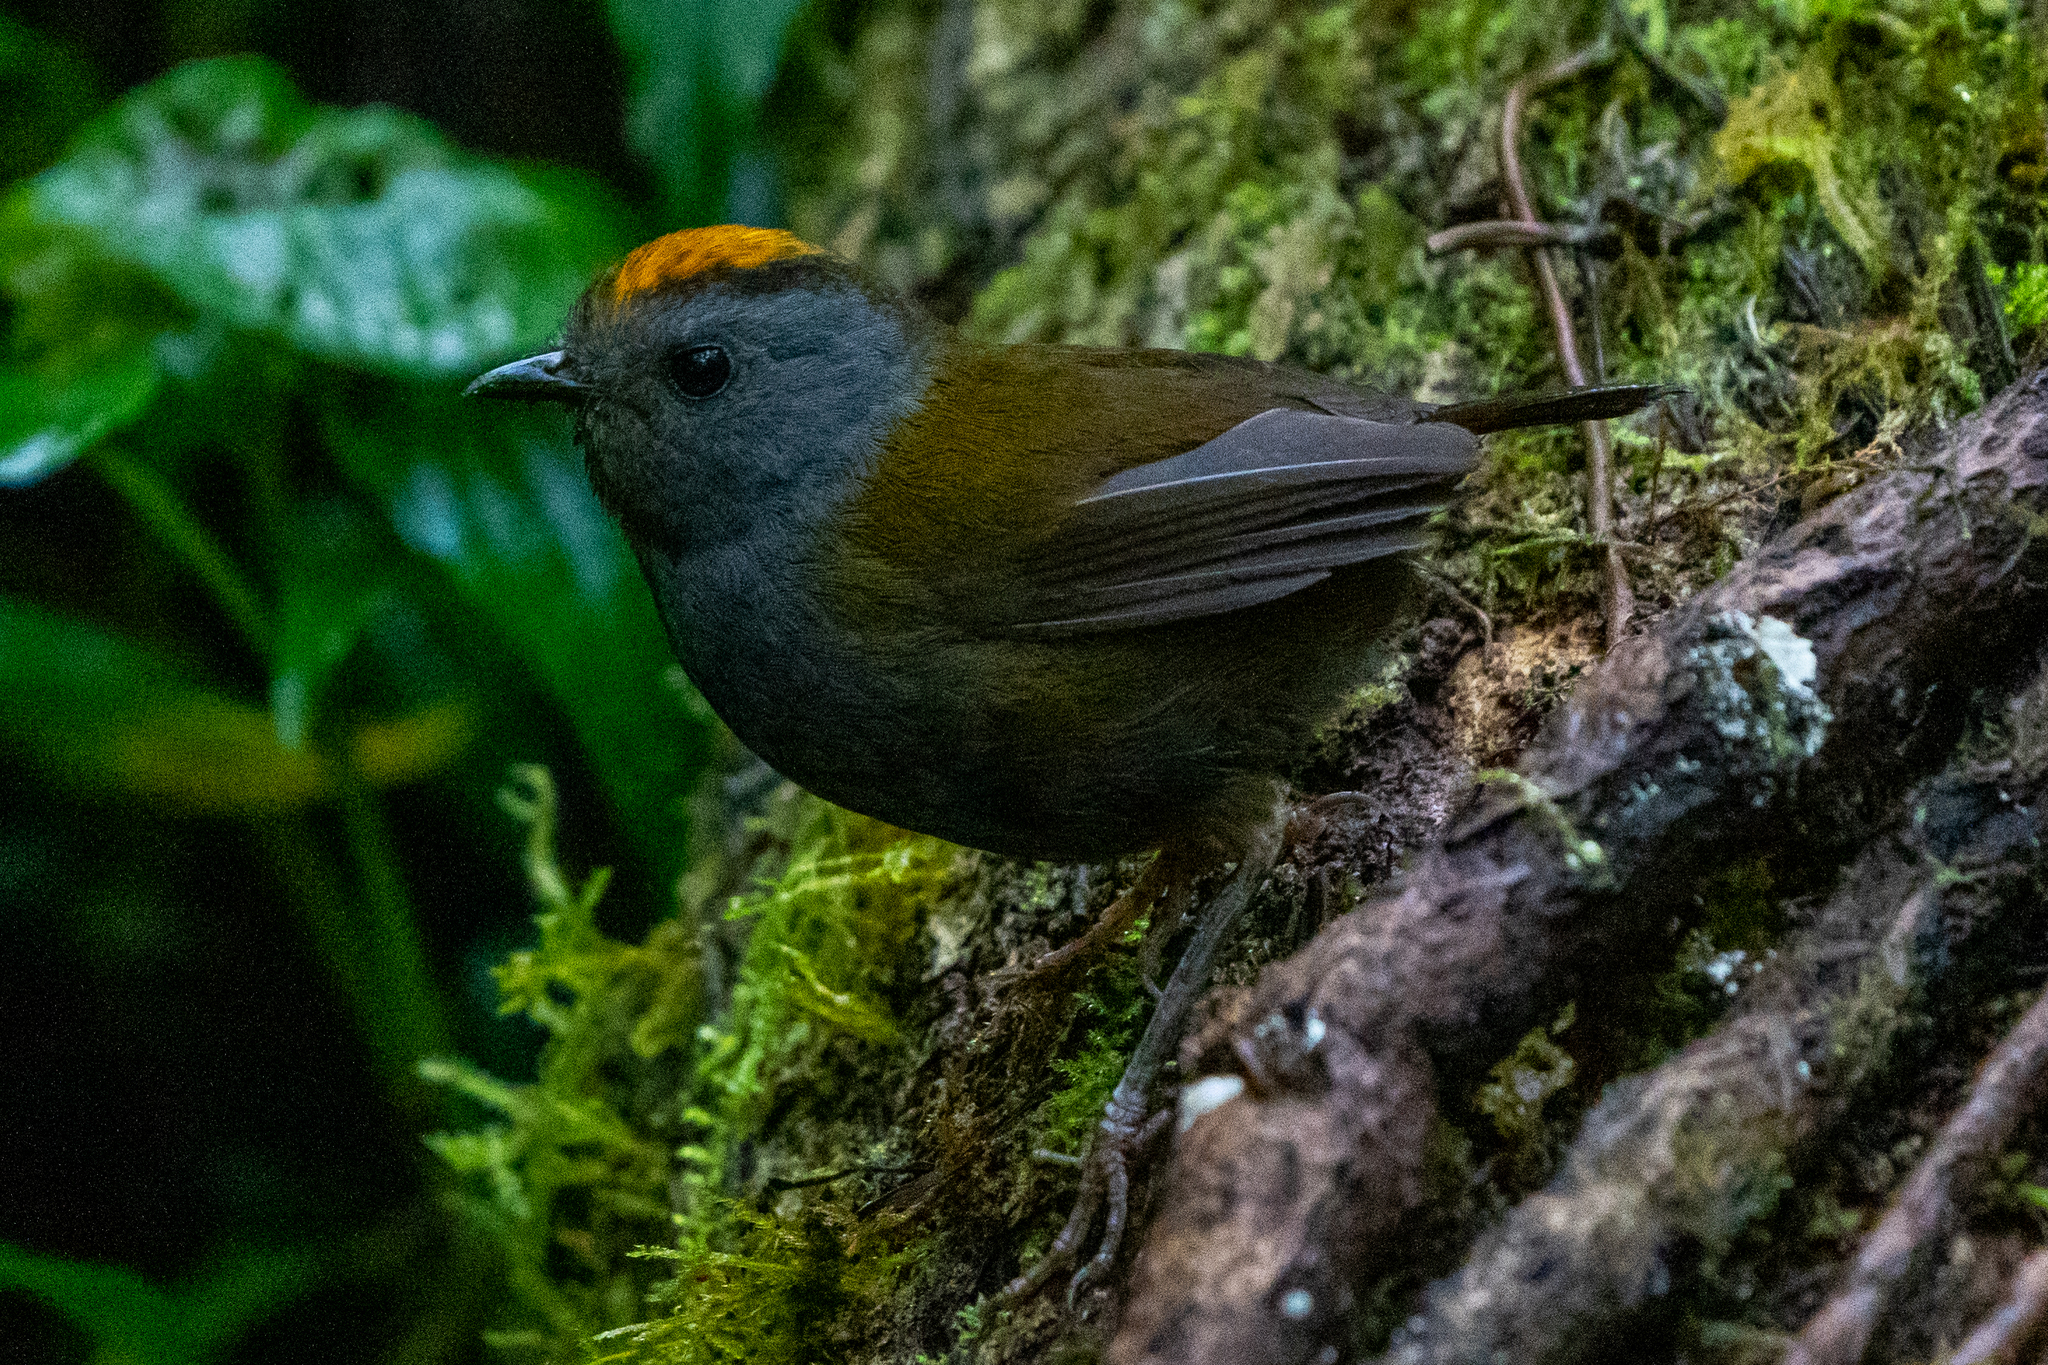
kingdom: Animalia
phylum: Chordata
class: Aves
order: Passeriformes
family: Parulidae
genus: Zeledonia
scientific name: Zeledonia coronata
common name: Wrenthrush
